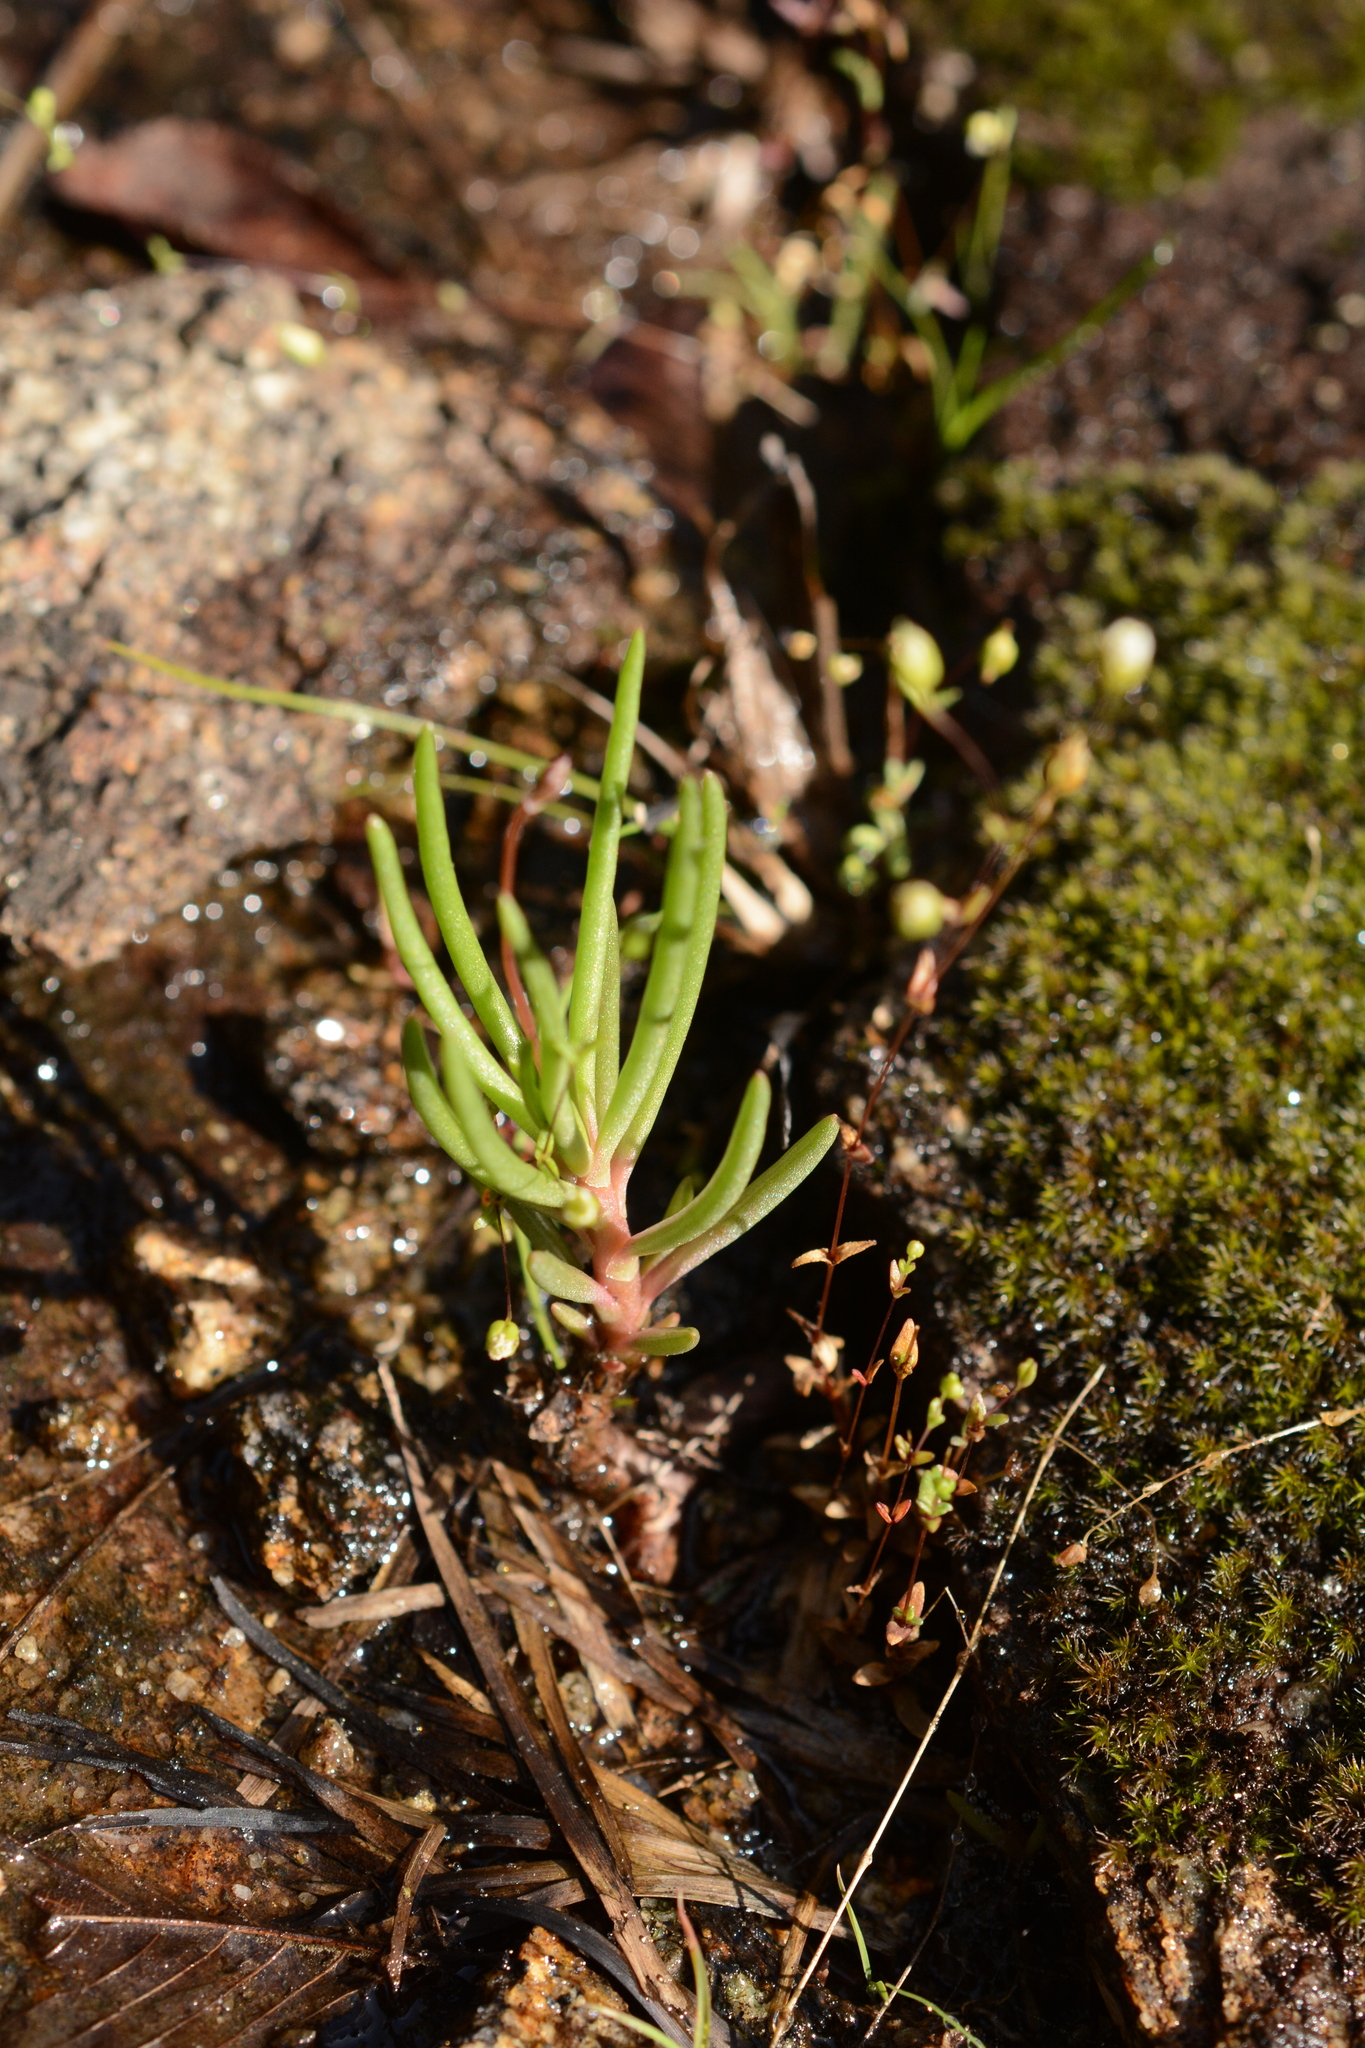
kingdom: Plantae
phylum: Tracheophyta
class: Magnoliopsida
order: Caryophyllales
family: Montiaceae
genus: Phemeranthus
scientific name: Phemeranthus teretifolius
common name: Quill fameflower
